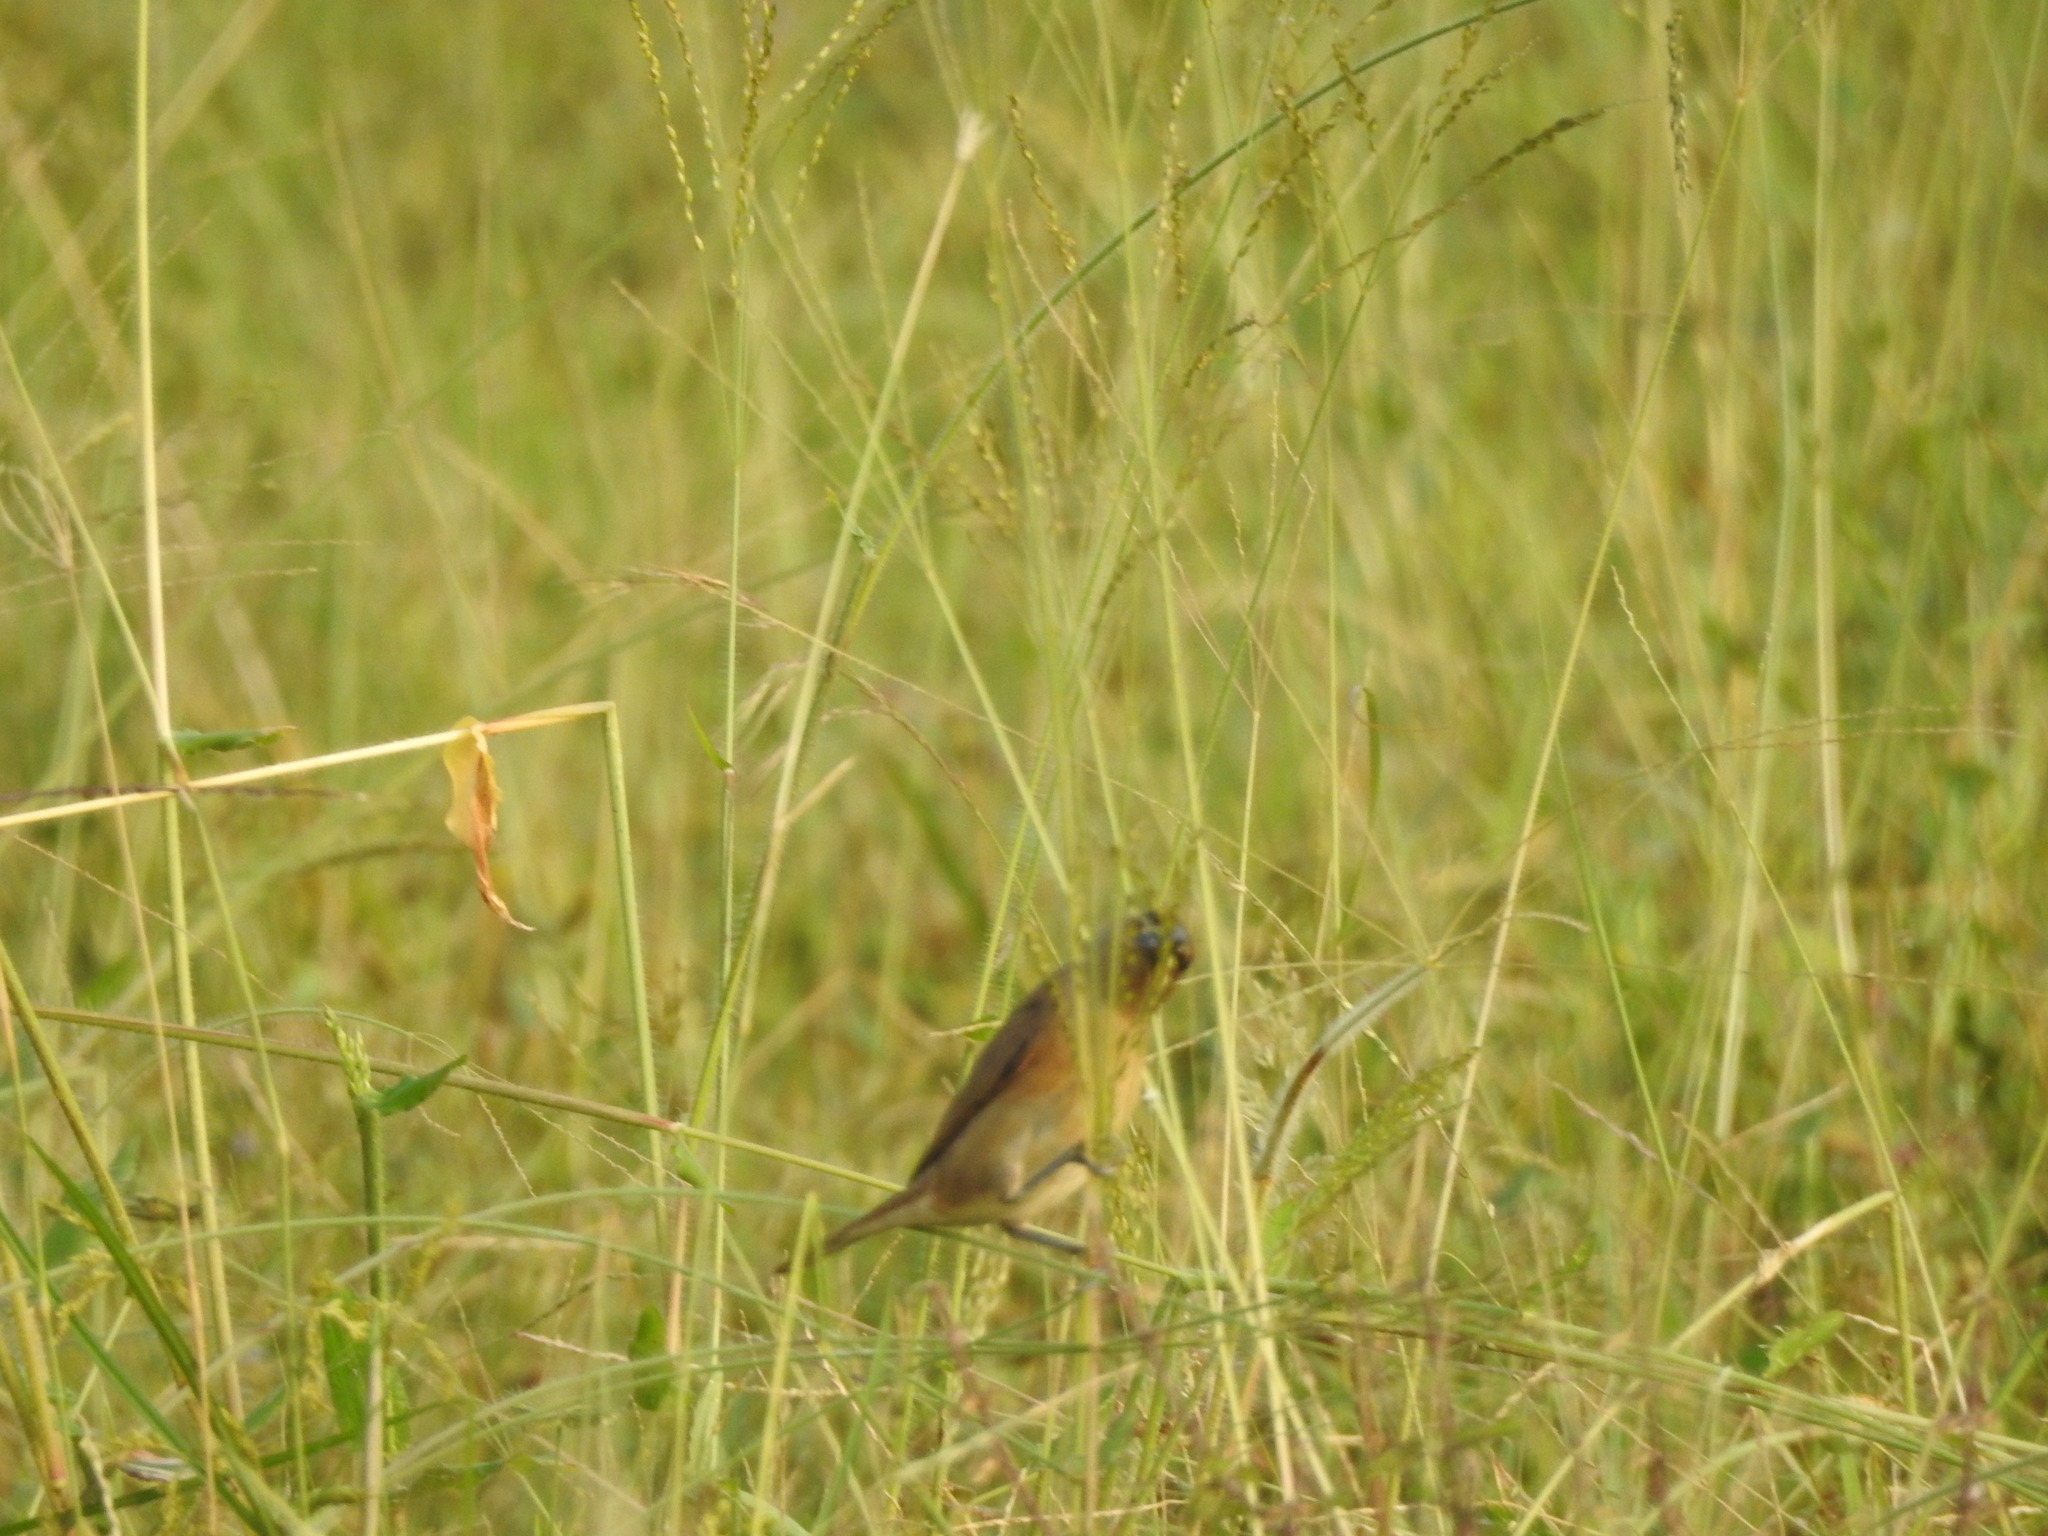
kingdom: Animalia
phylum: Chordata
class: Aves
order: Passeriformes
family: Estrildidae
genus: Euodice
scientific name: Euodice malabarica
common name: Indian silverbill
